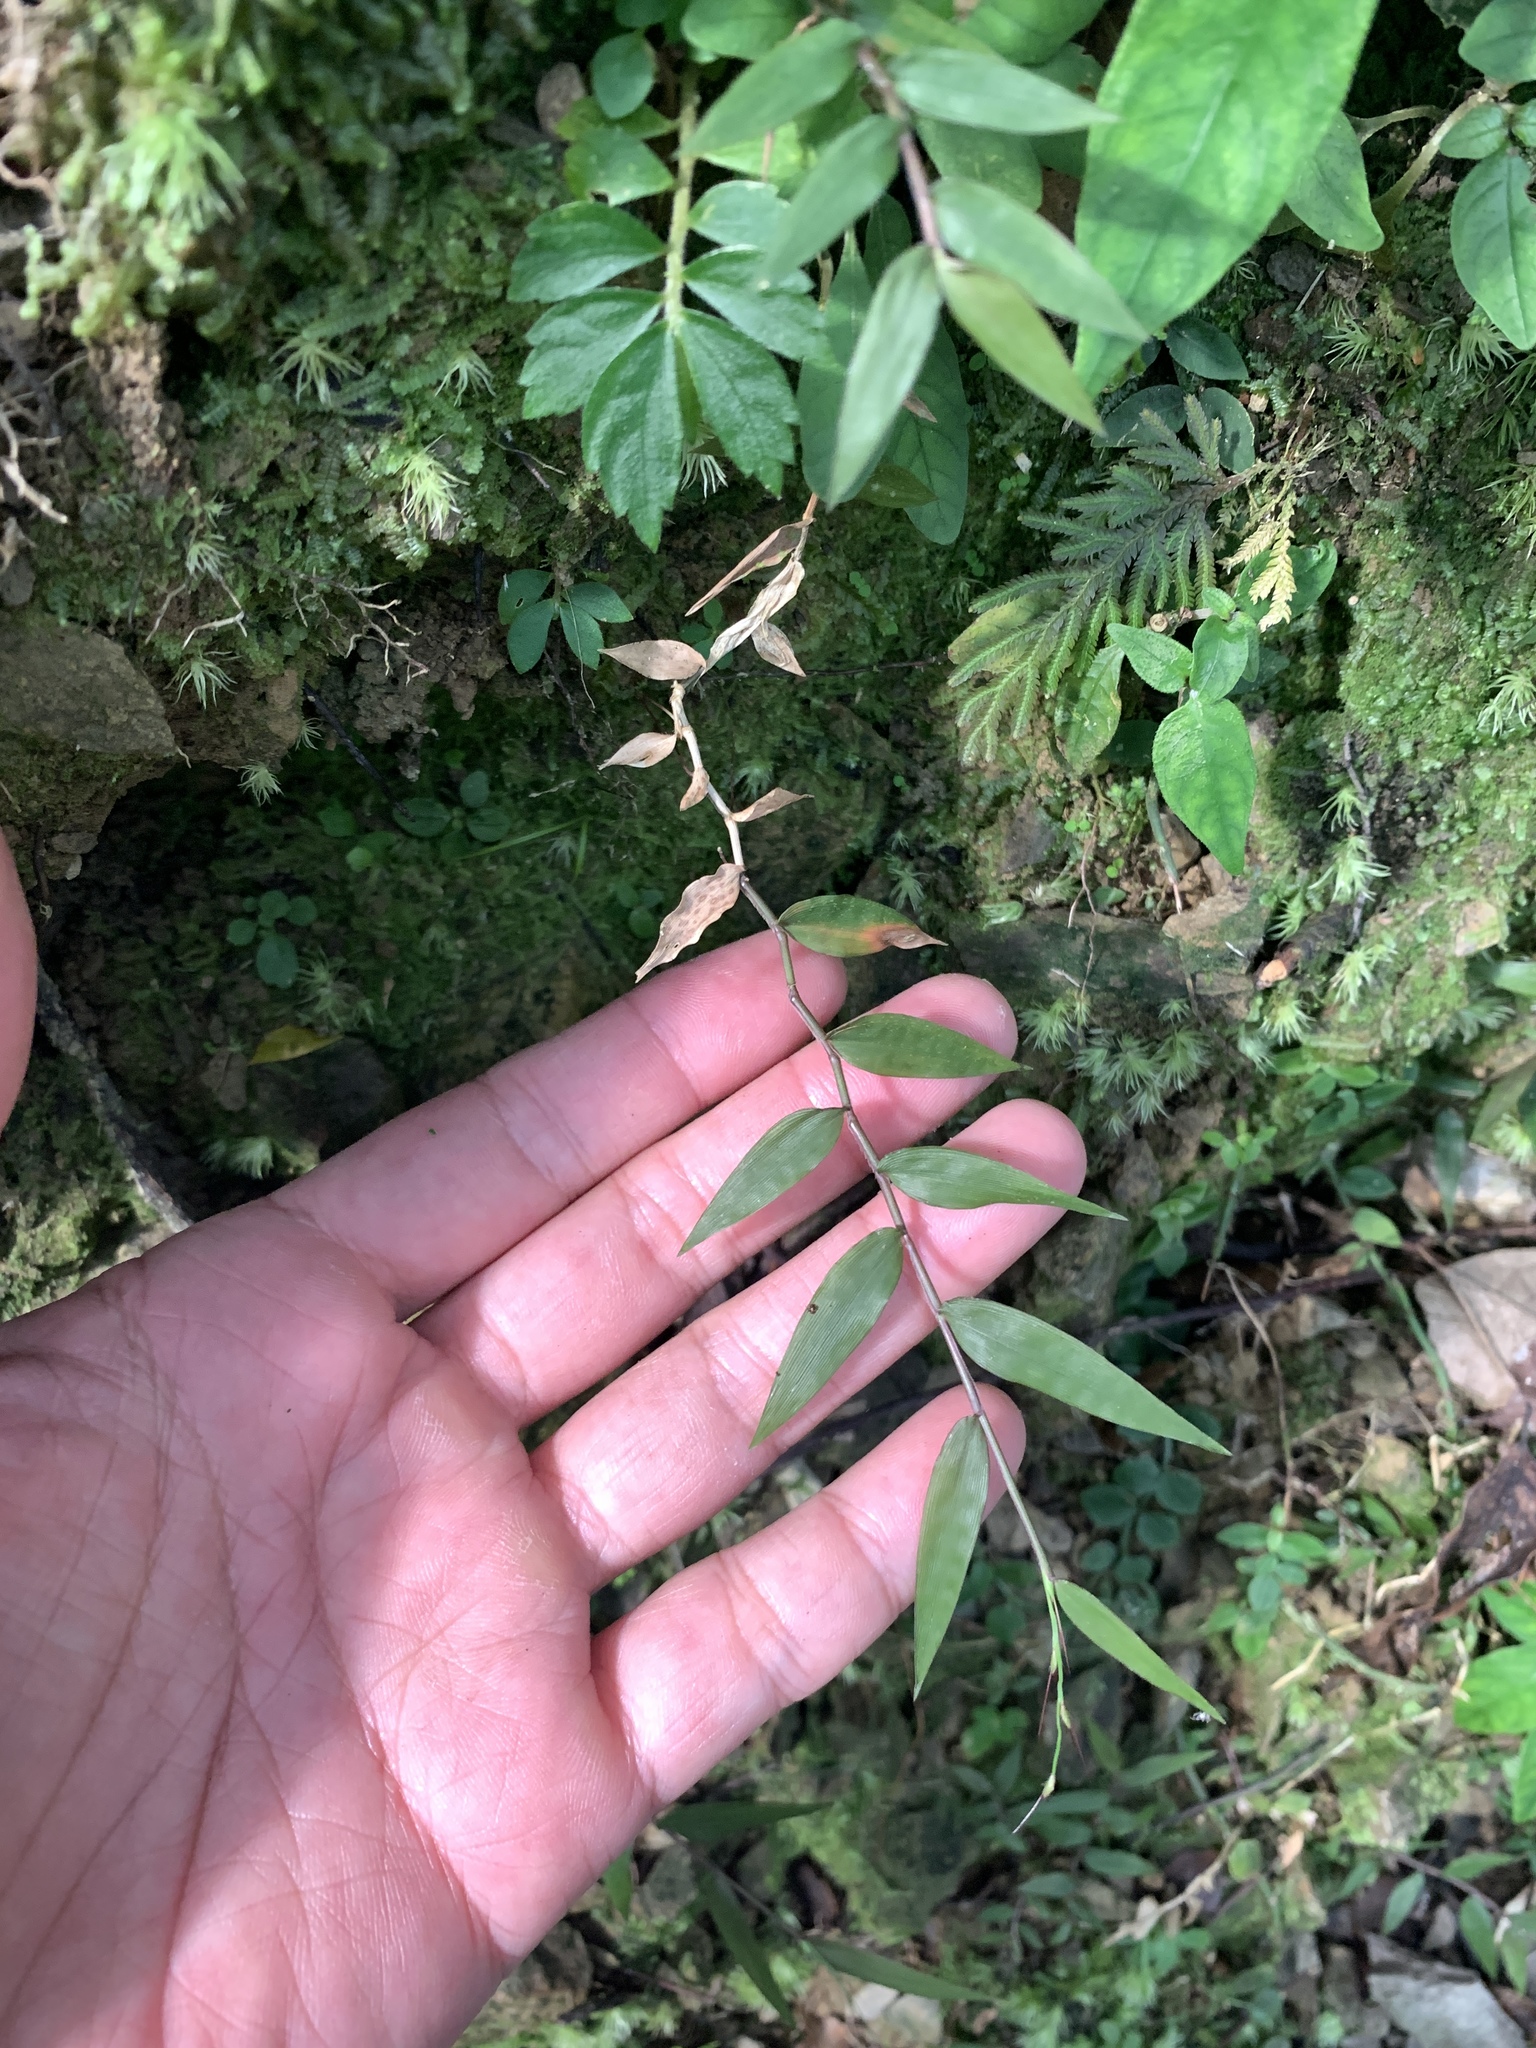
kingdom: Plantae
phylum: Tracheophyta
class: Liliopsida
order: Poales
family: Poaceae
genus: Oplismenus
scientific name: Oplismenus hirtellus
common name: Basketgrass
